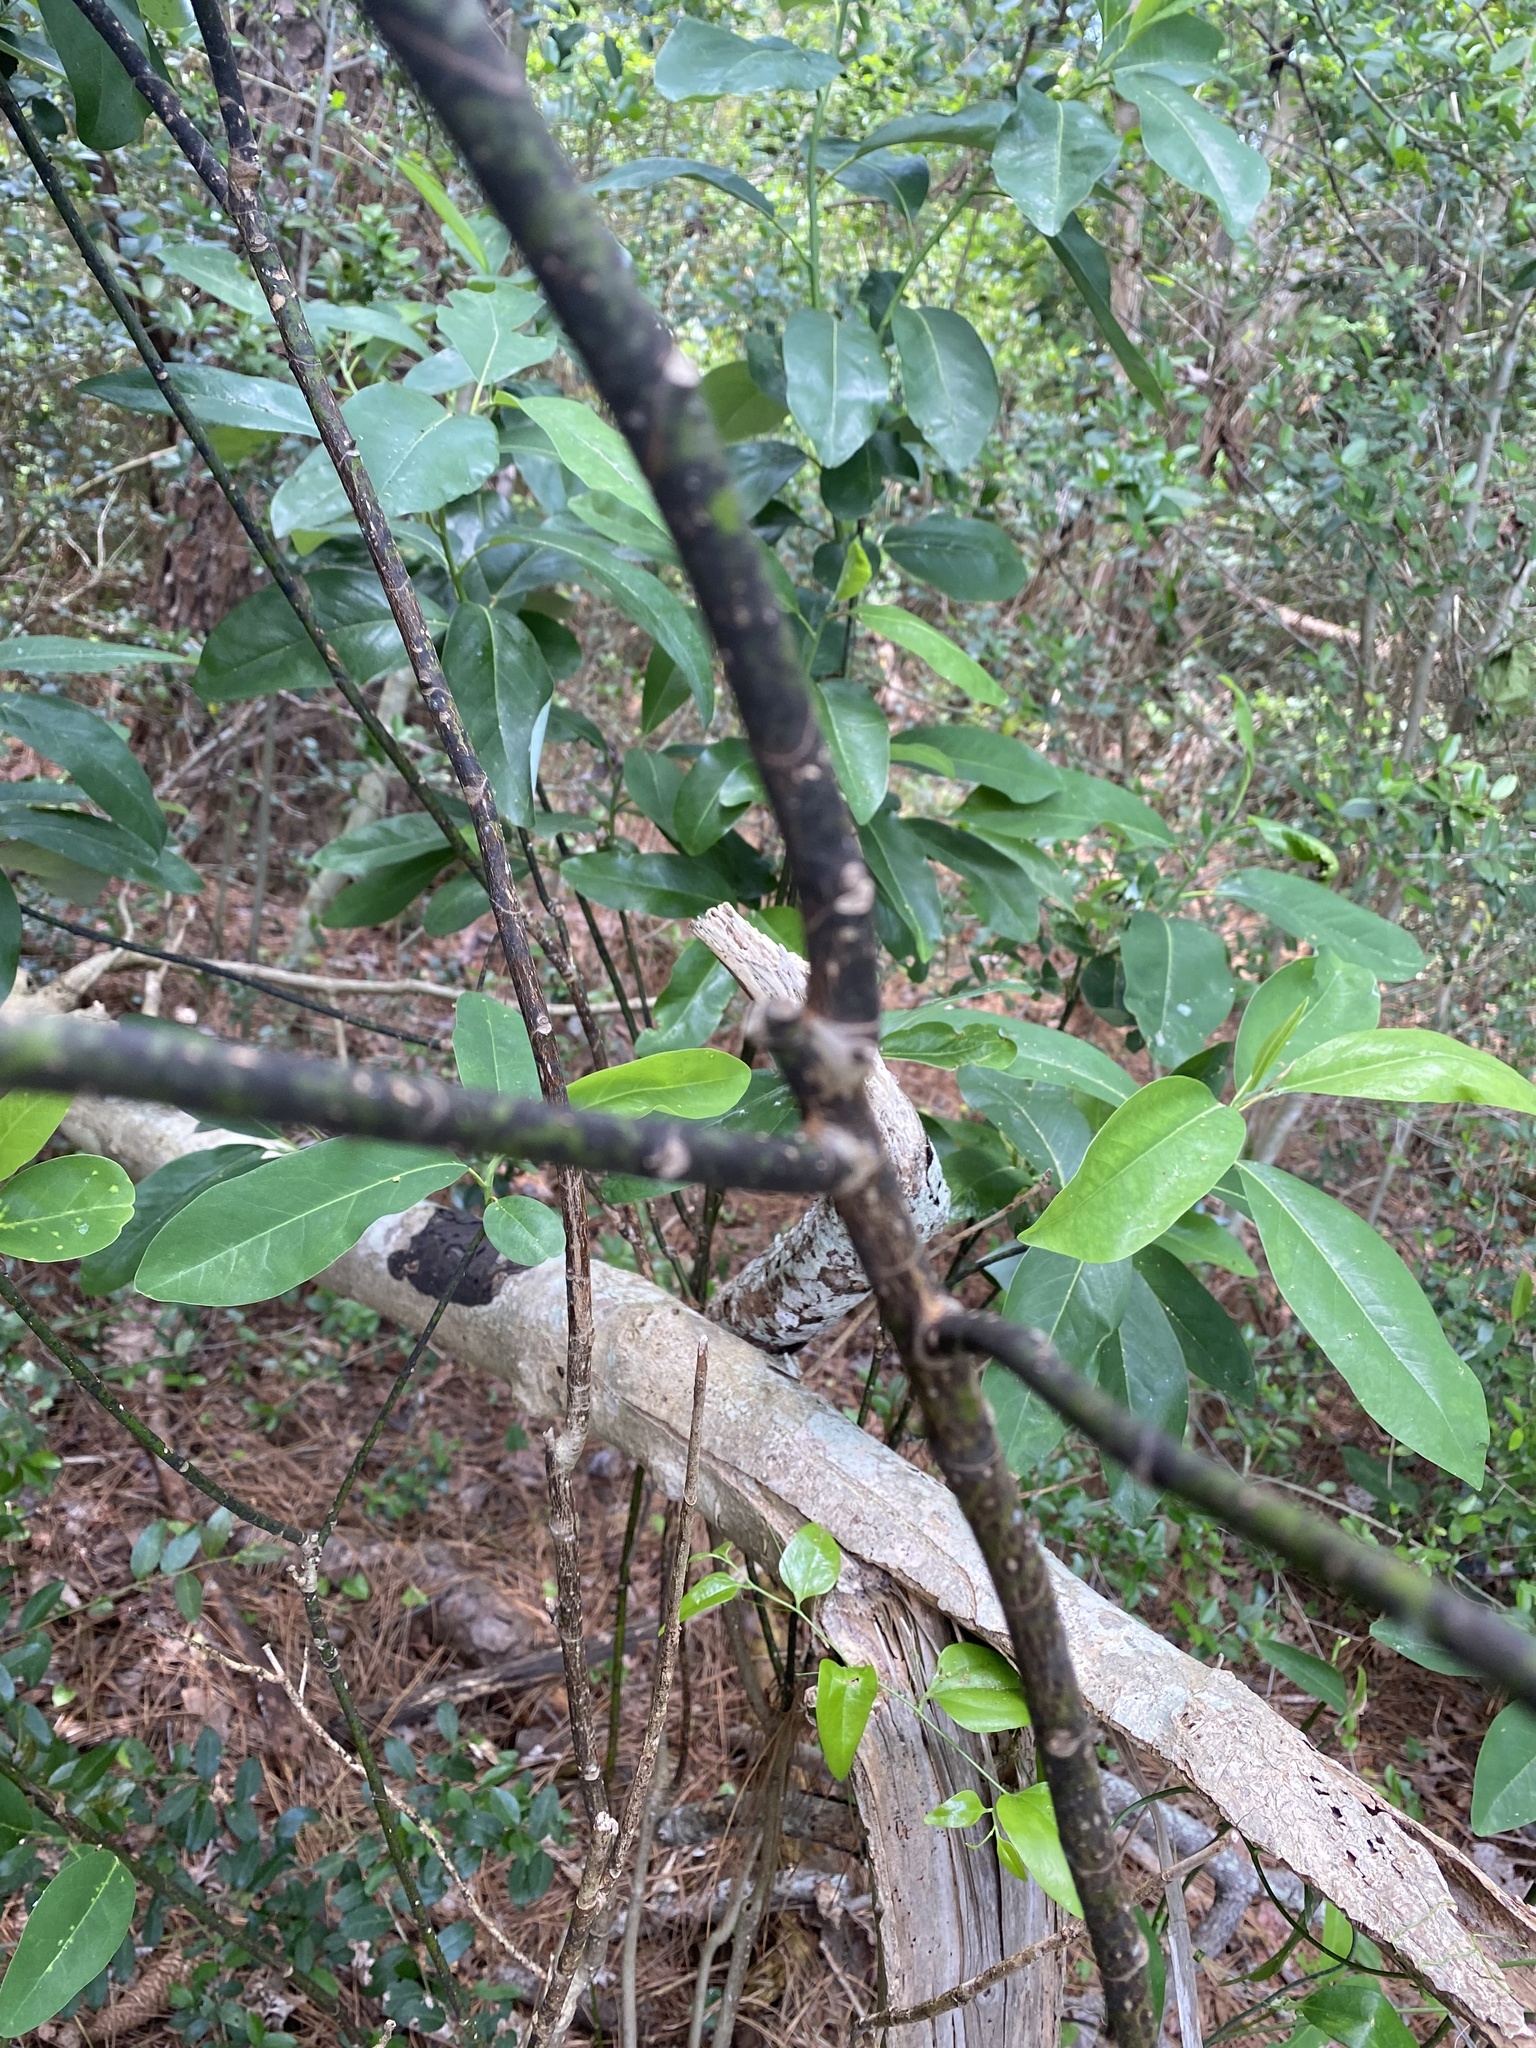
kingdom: Plantae
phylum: Tracheophyta
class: Magnoliopsida
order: Magnoliales
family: Magnoliaceae
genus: Magnolia
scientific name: Magnolia virginiana
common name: Swamp bay
